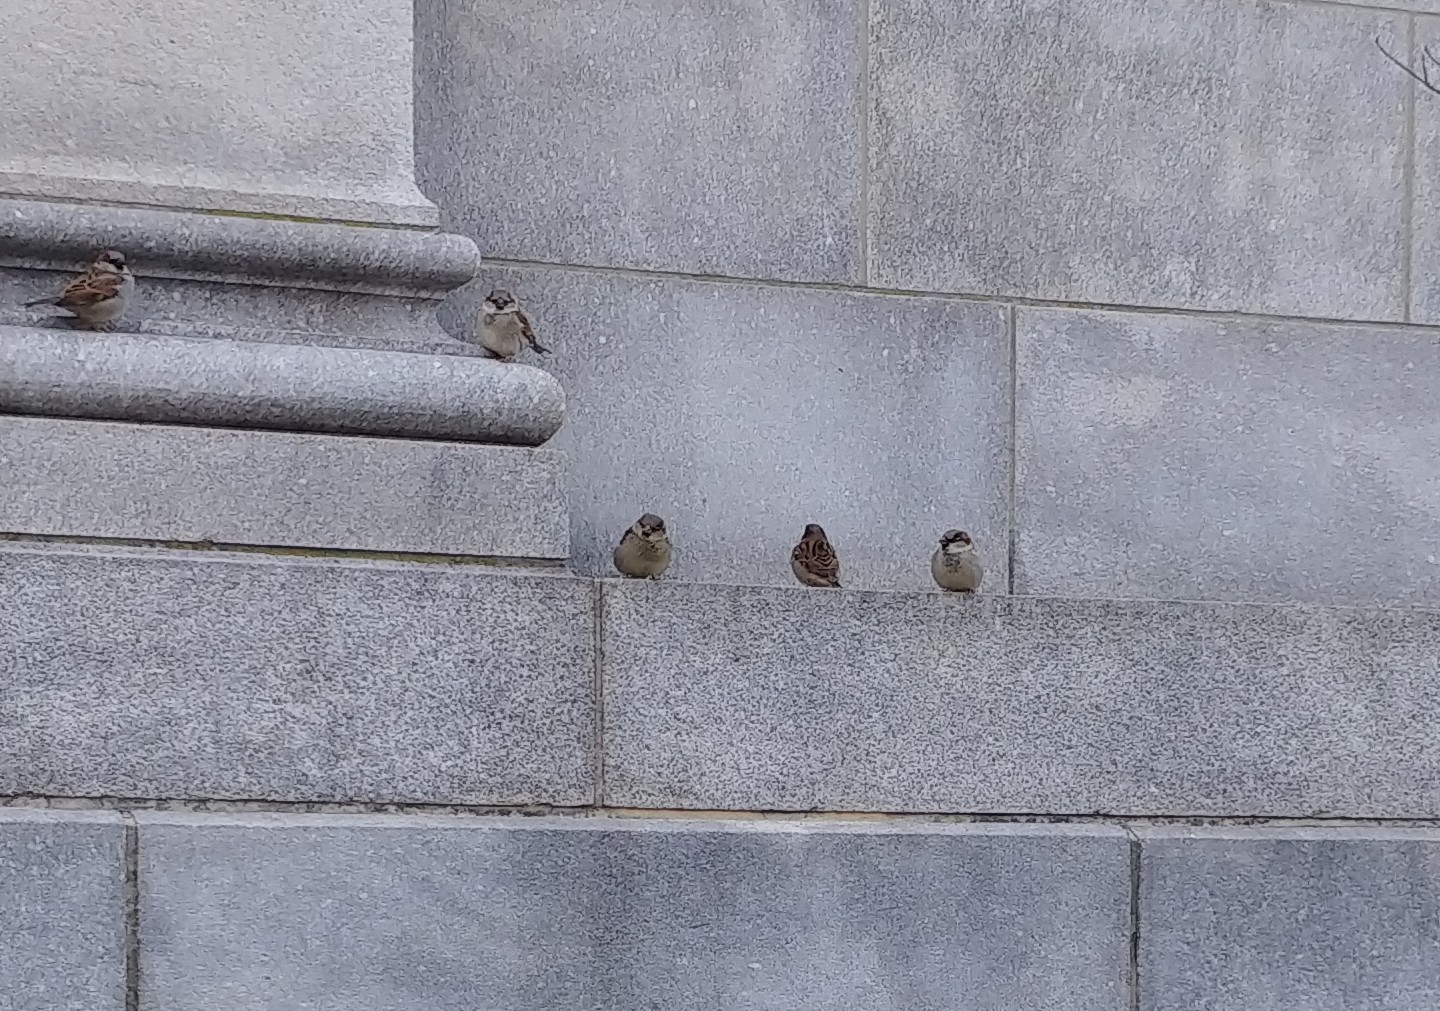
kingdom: Animalia
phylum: Chordata
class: Aves
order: Passeriformes
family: Passeridae
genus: Passer
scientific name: Passer domesticus
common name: House sparrow
